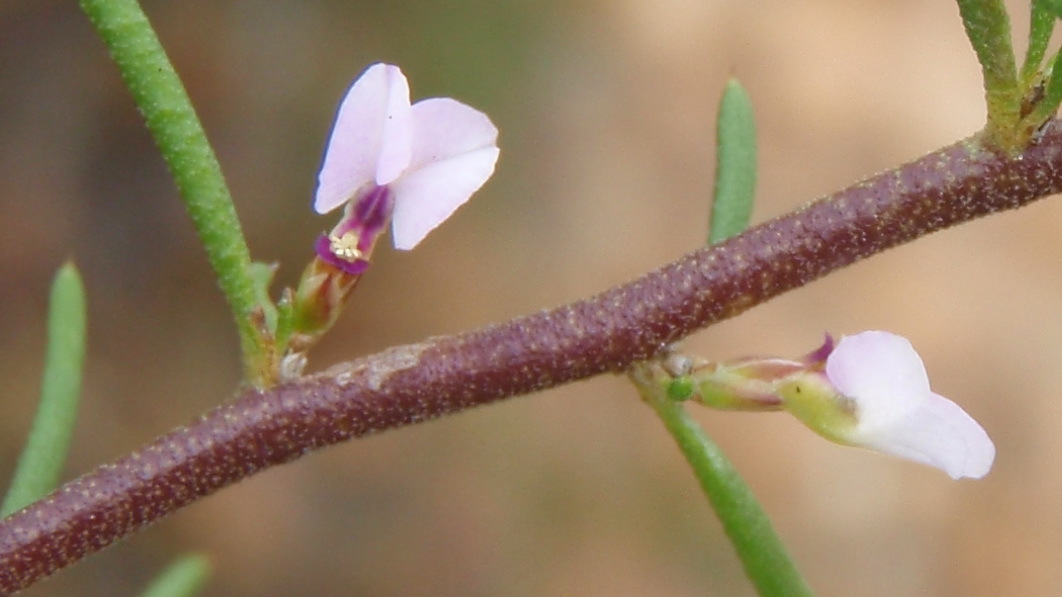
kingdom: Plantae
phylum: Tracheophyta
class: Magnoliopsida
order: Fabales
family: Polygalaceae
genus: Muraltia
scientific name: Muraltia cyclolopha
